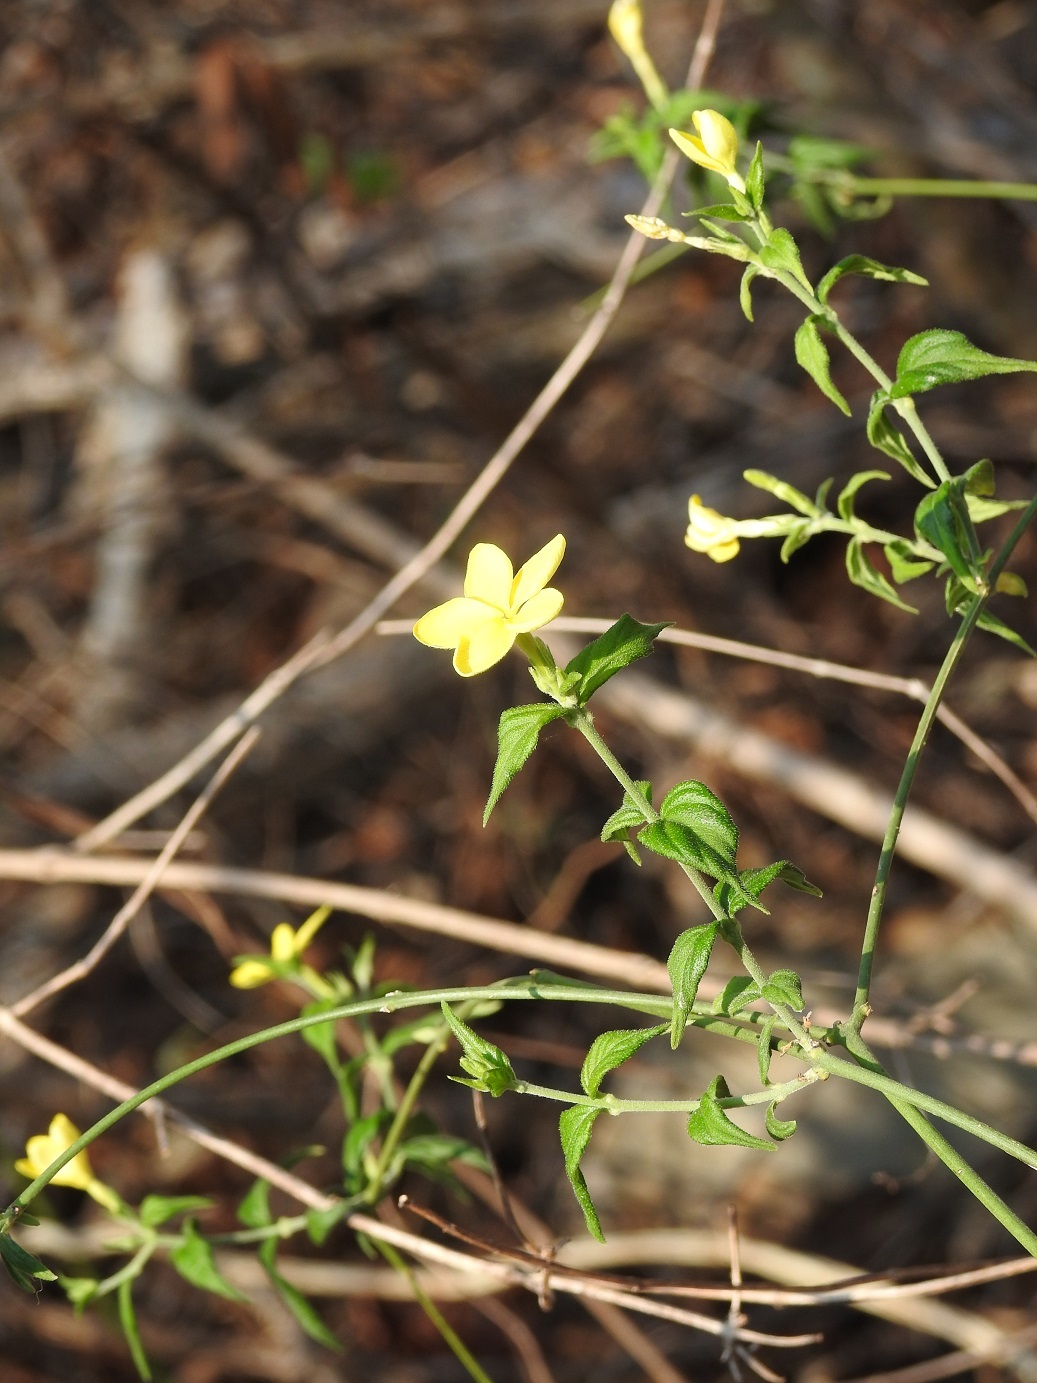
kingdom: Plantae
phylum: Tracheophyta
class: Magnoliopsida
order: Gentianales
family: Apocynaceae
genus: Haplophyton
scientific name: Haplophyton cimicidum
